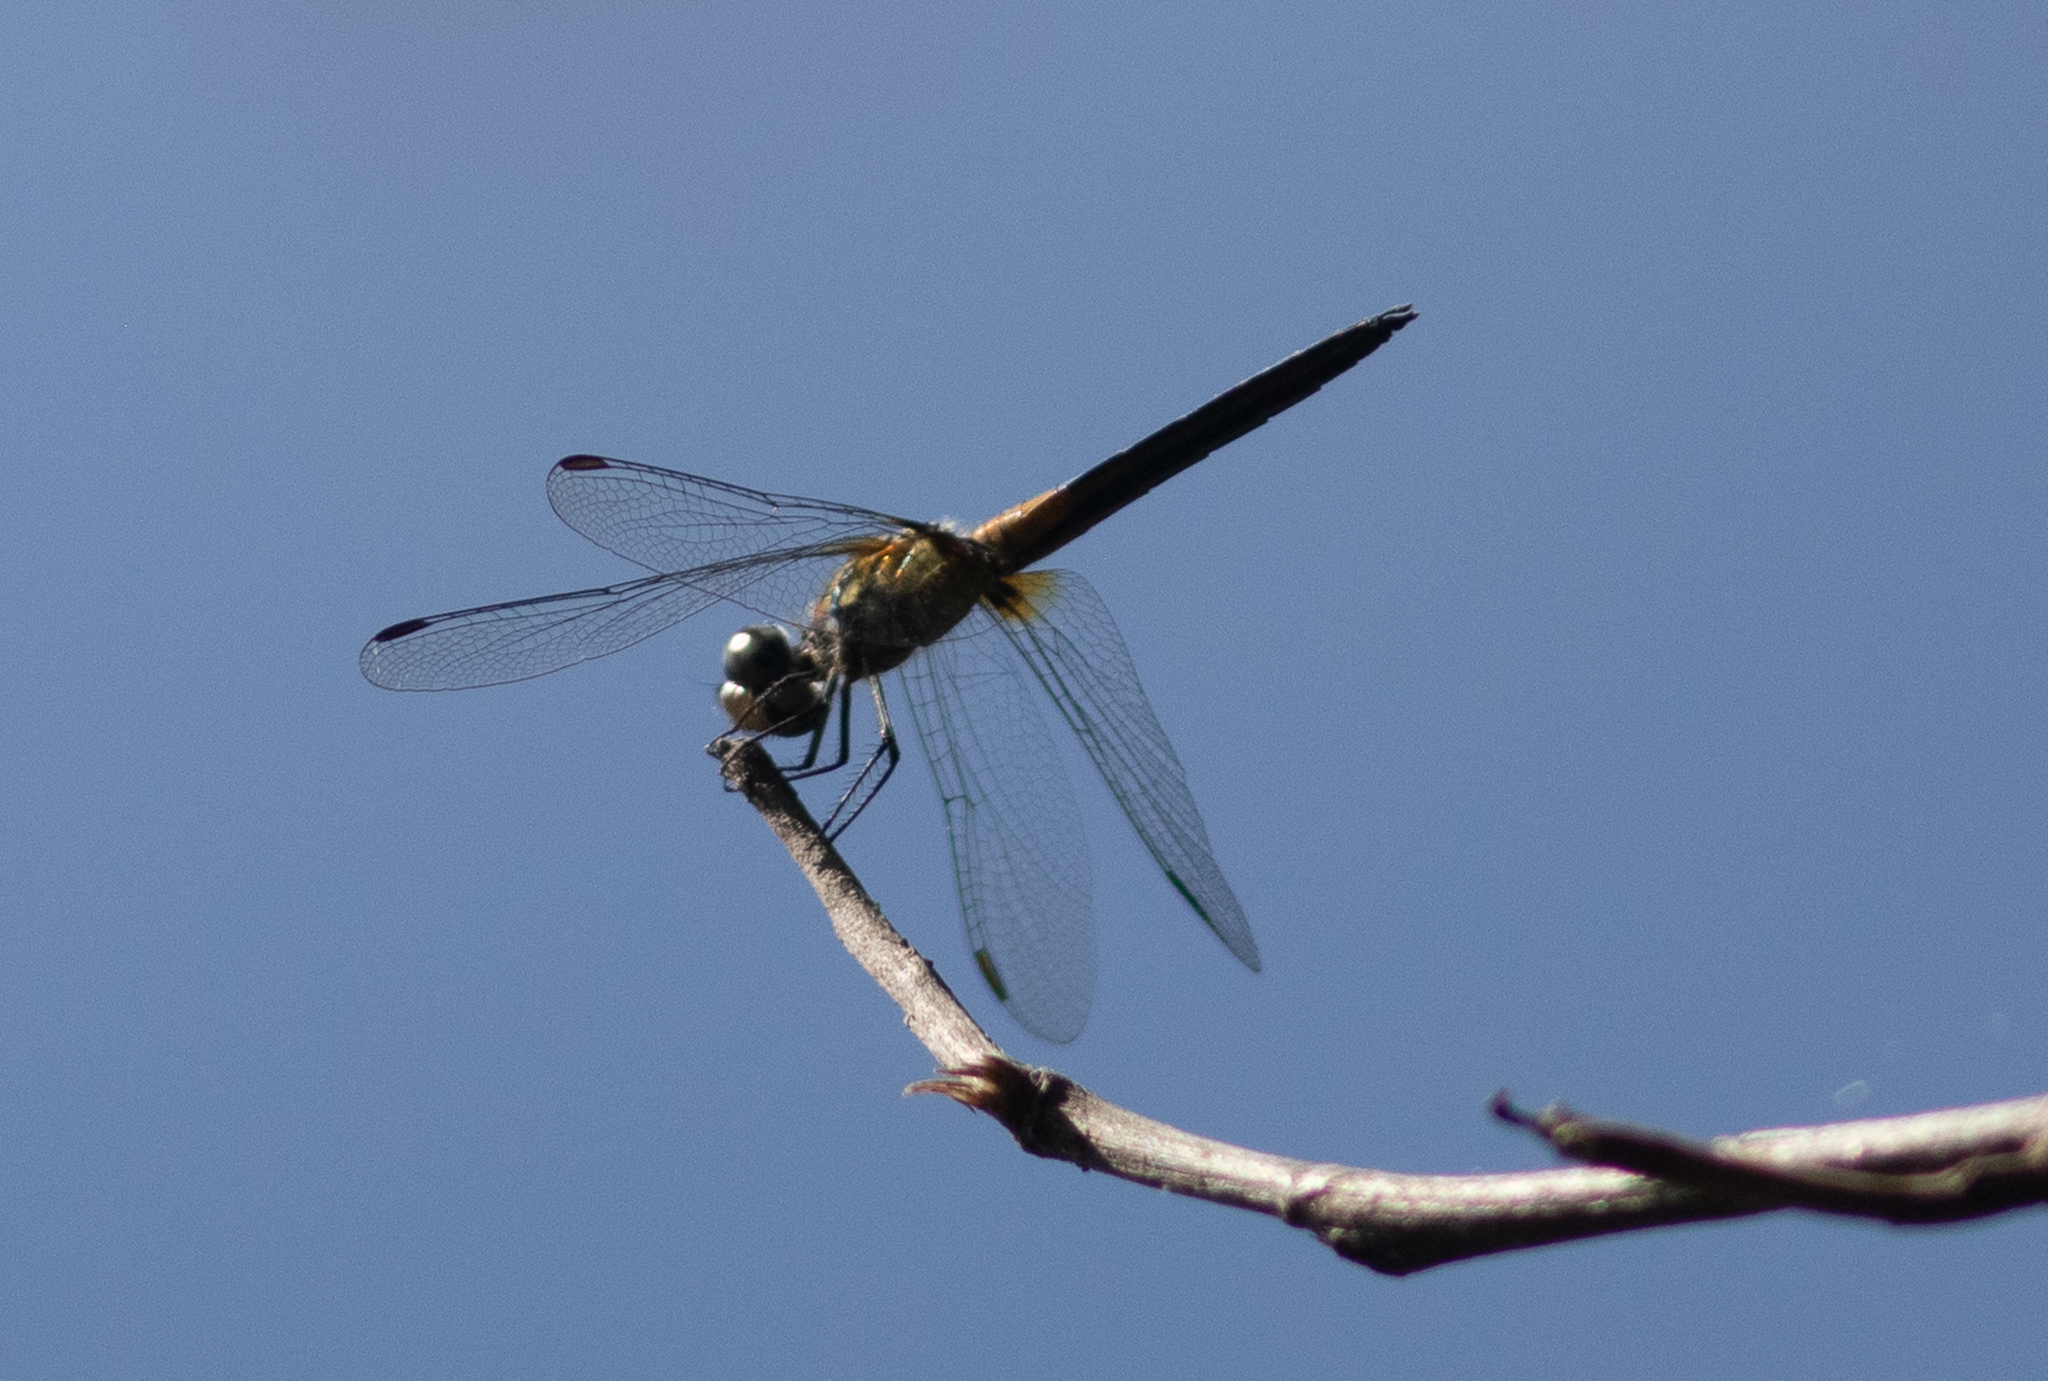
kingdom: Animalia
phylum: Arthropoda
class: Insecta
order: Odonata
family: Libellulidae
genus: Pachydiplax
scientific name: Pachydiplax longipennis
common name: Blue dasher
